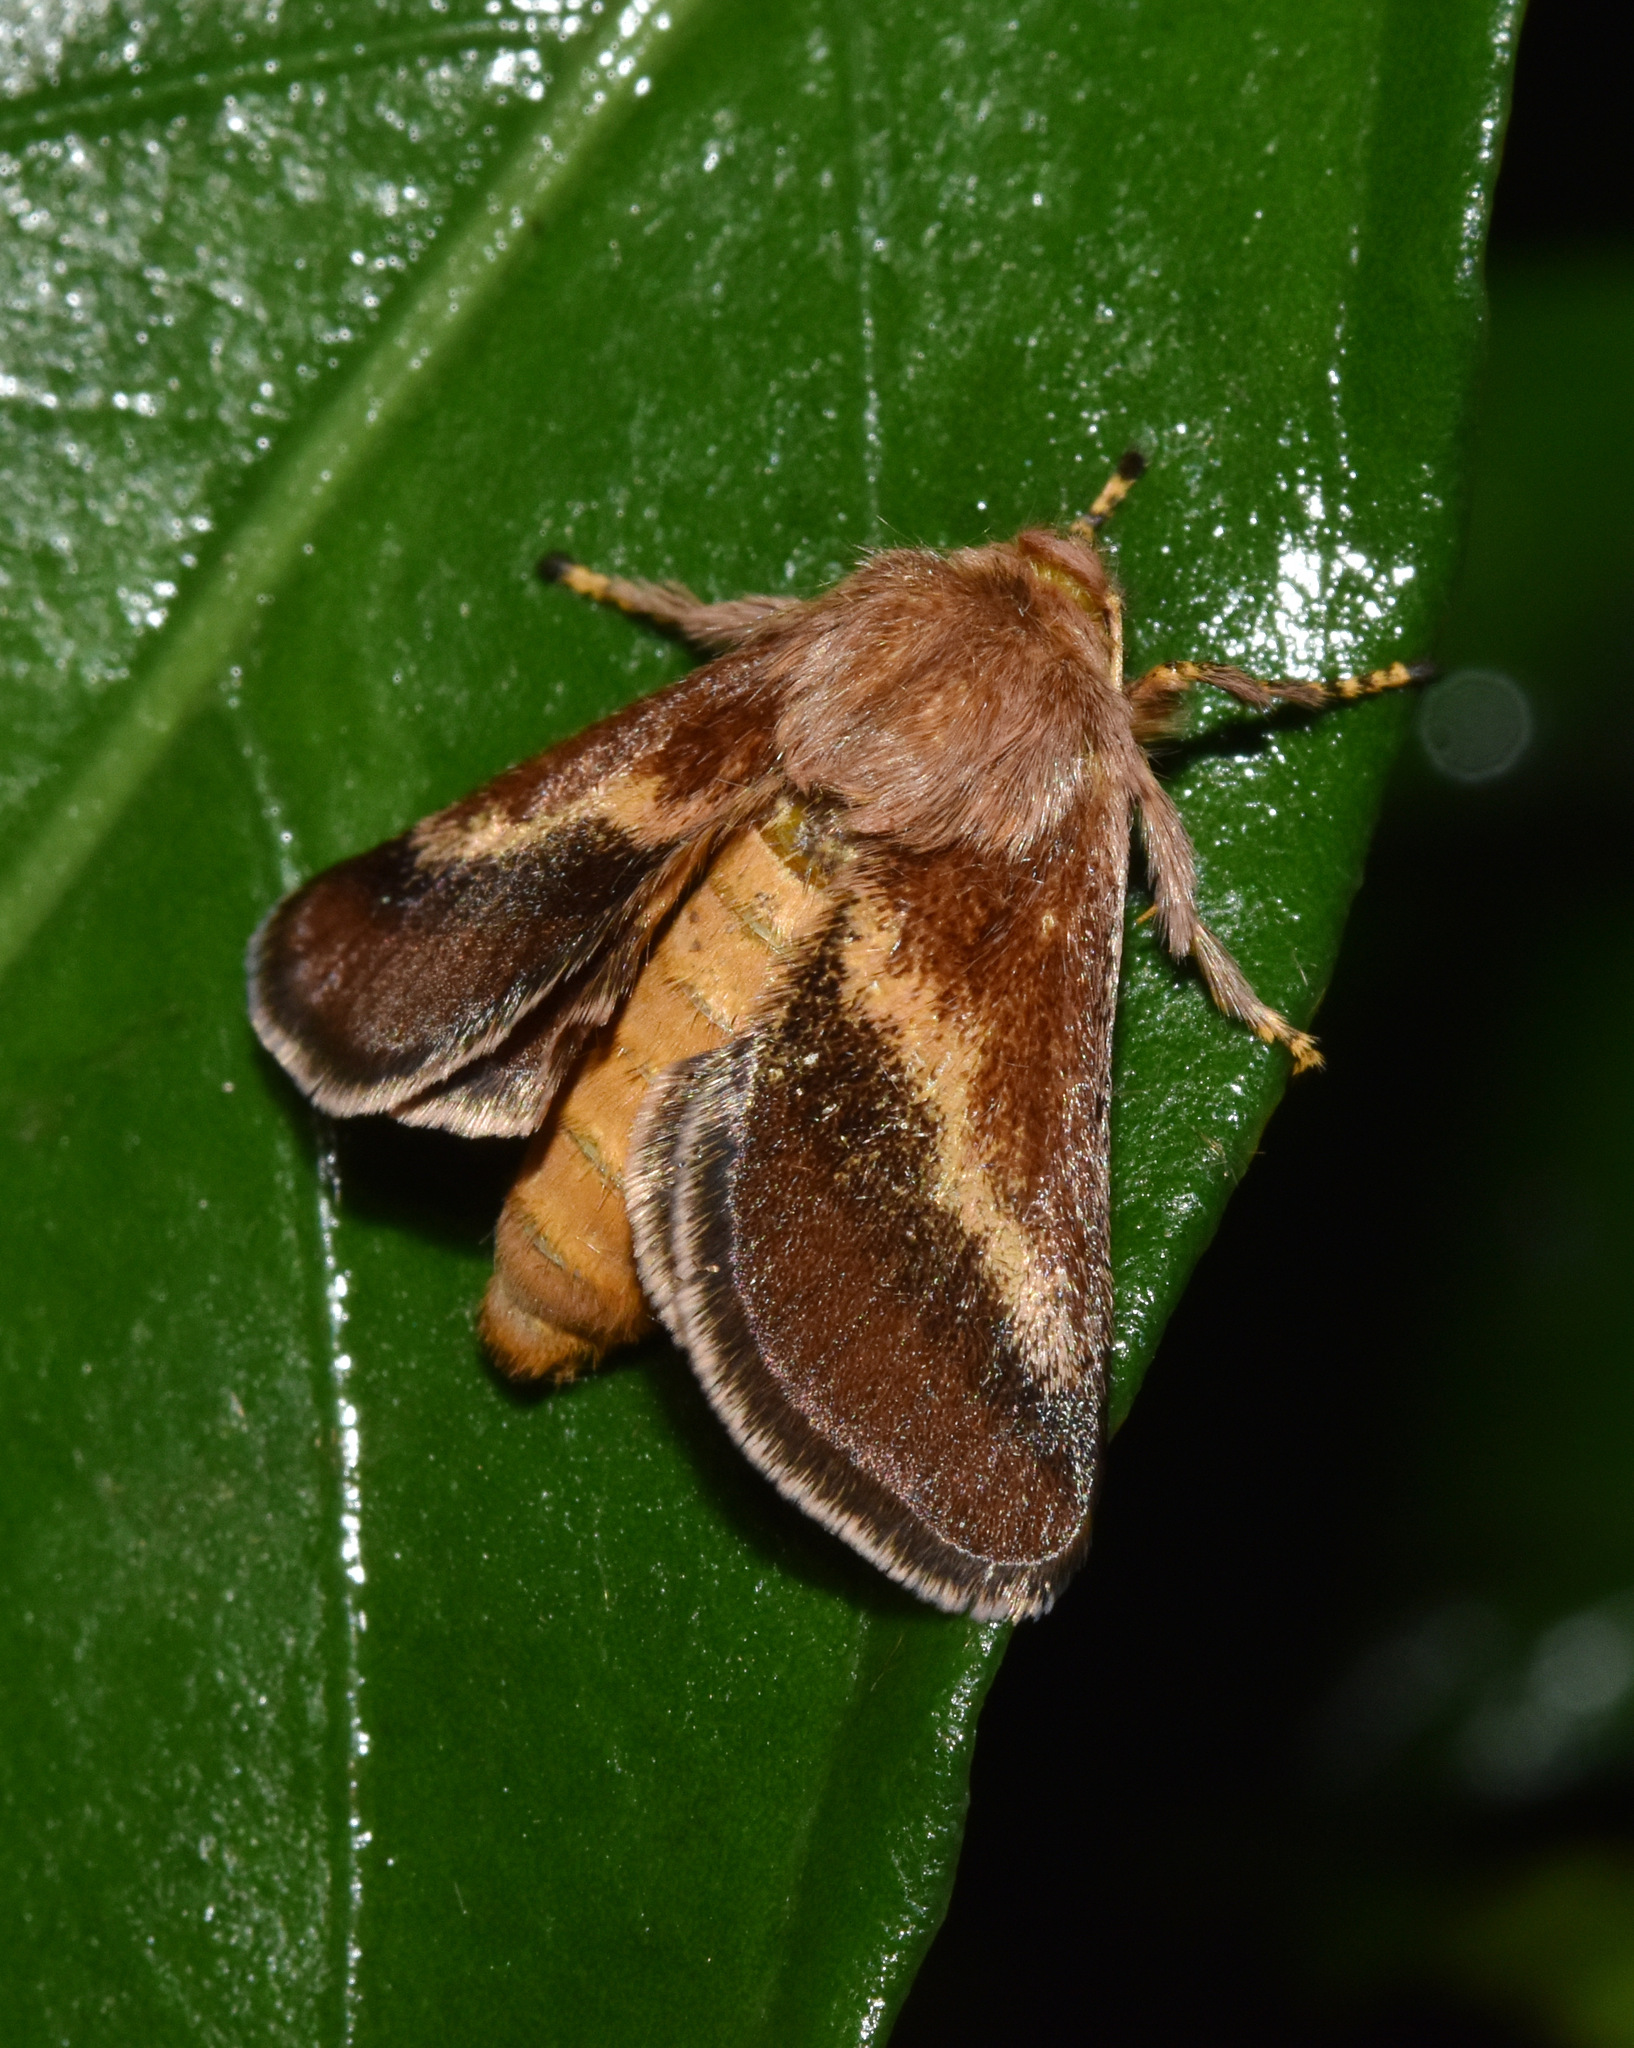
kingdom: Animalia
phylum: Arthropoda
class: Insecta
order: Lepidoptera
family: Limacodidae
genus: Sporetolepis
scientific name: Sporetolepis platti
